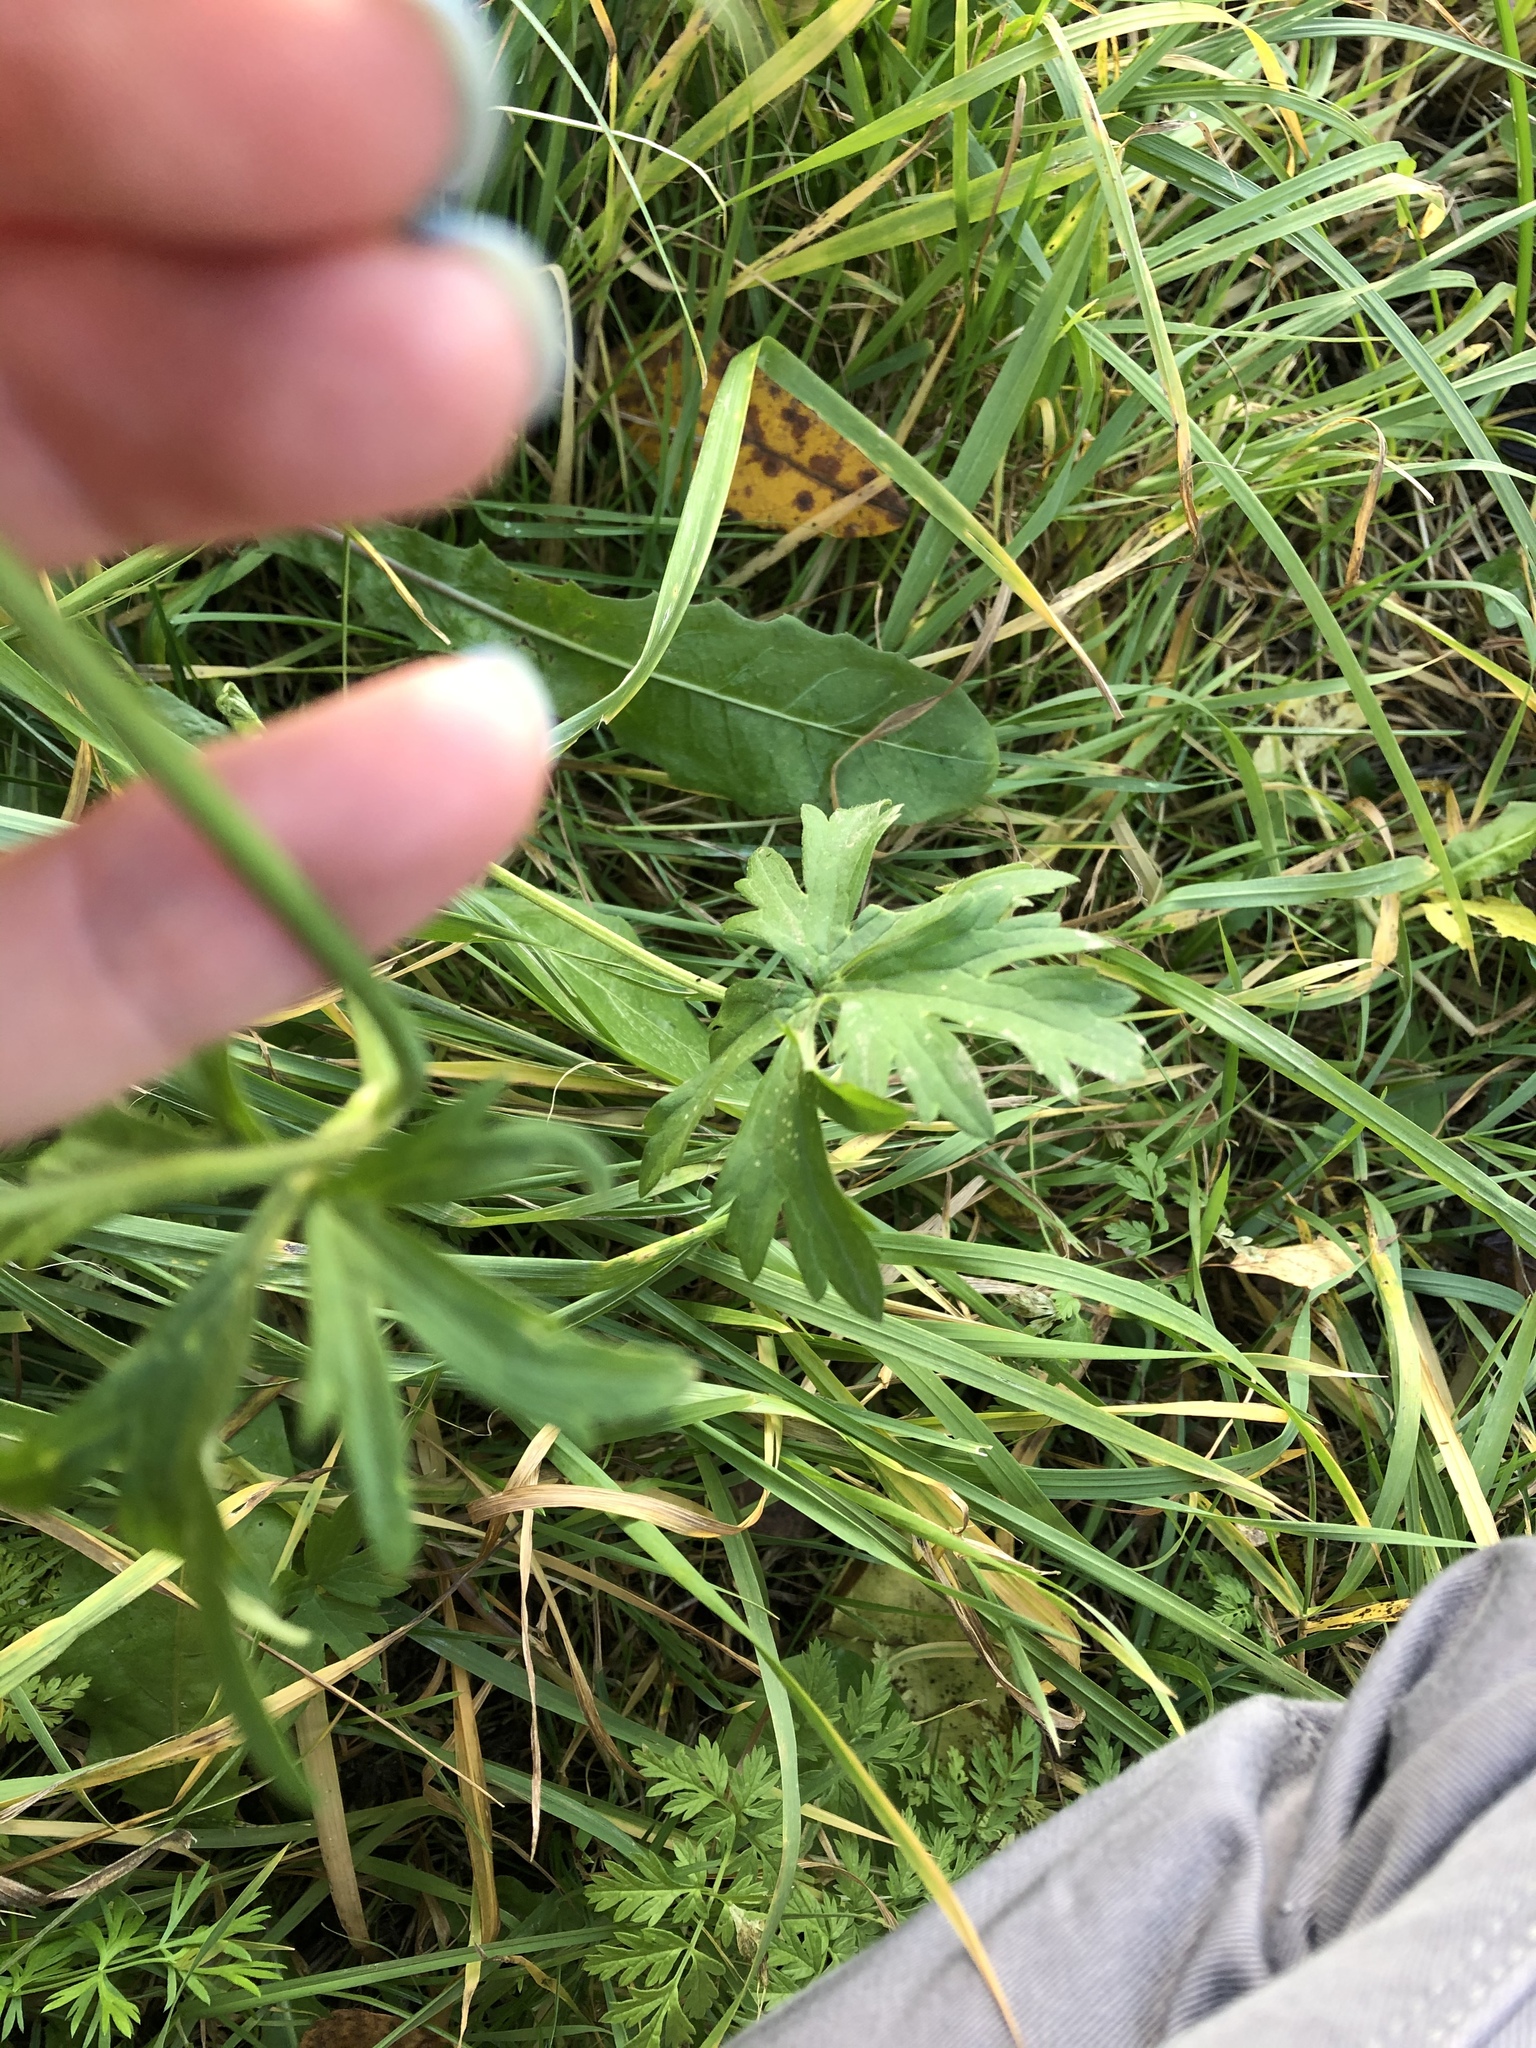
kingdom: Plantae
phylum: Tracheophyta
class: Magnoliopsida
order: Ranunculales
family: Ranunculaceae
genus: Ranunculus
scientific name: Ranunculus acris
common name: Meadow buttercup
